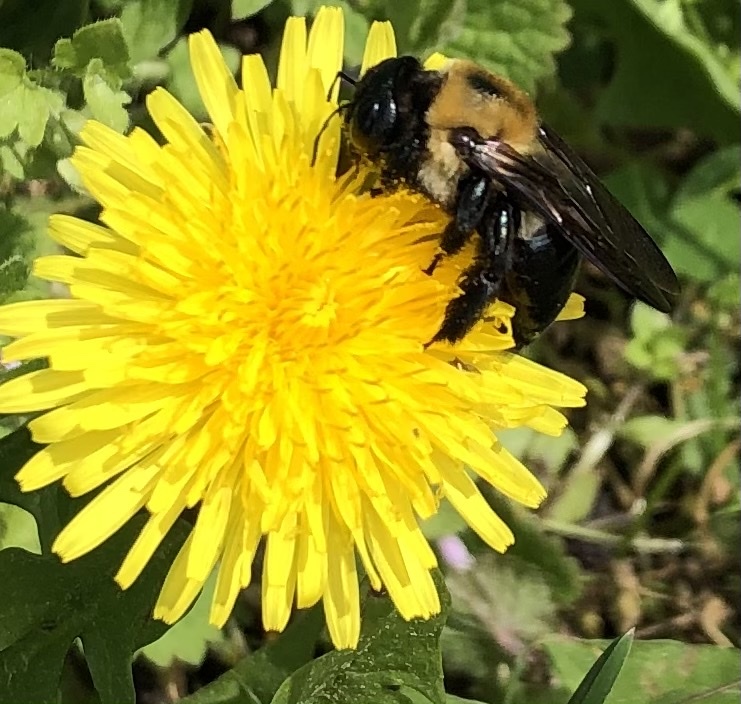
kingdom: Animalia
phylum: Arthropoda
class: Insecta
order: Hymenoptera
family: Apidae
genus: Xylocopa
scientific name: Xylocopa virginica
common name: Carpenter bee
